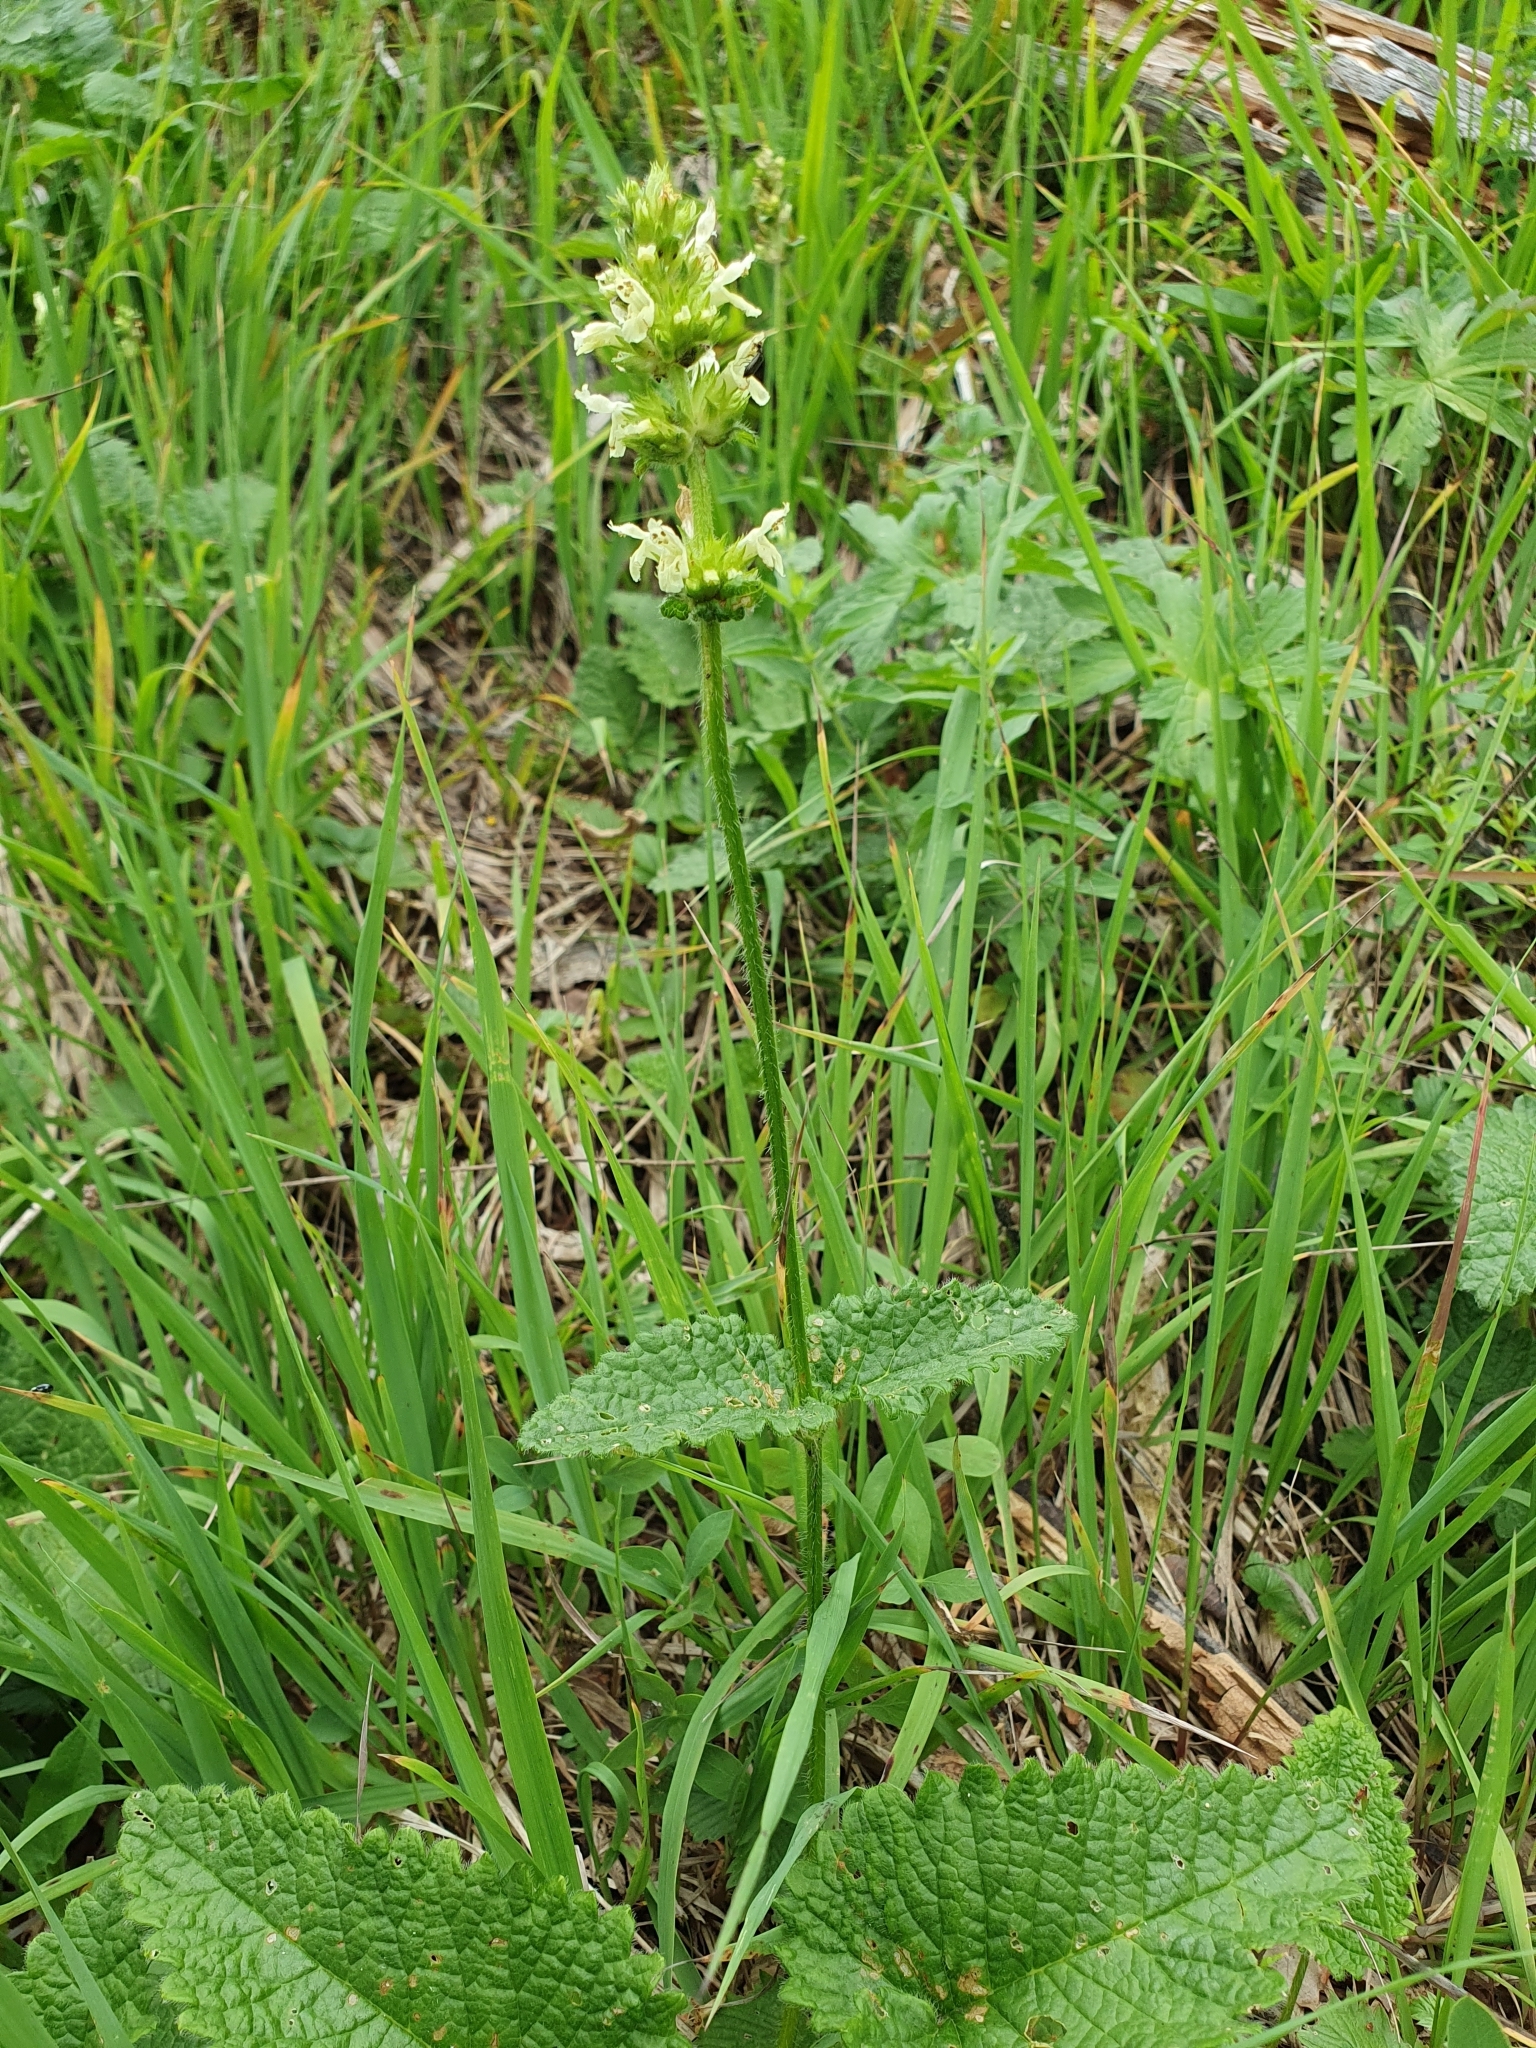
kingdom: Plantae
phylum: Tracheophyta
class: Magnoliopsida
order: Lamiales
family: Lamiaceae
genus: Betonica
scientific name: Betonica alopecuros
